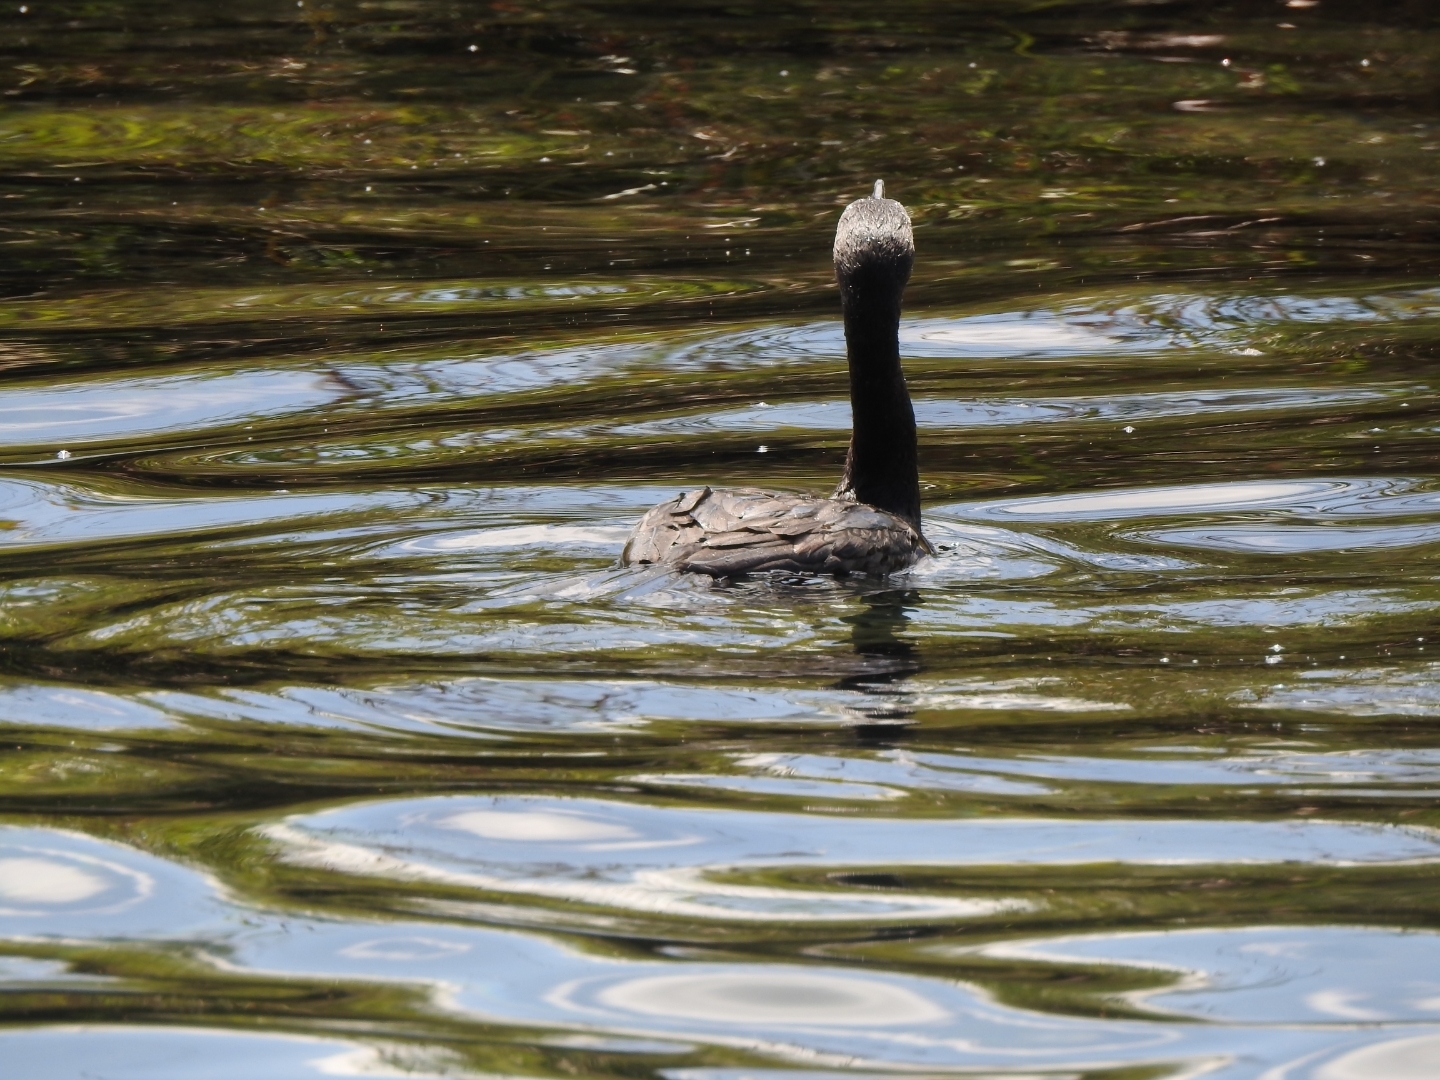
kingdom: Animalia
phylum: Chordata
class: Aves
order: Suliformes
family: Phalacrocoracidae
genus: Phalacrocorax
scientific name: Phalacrocorax brasilianus
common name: Neotropic cormorant
